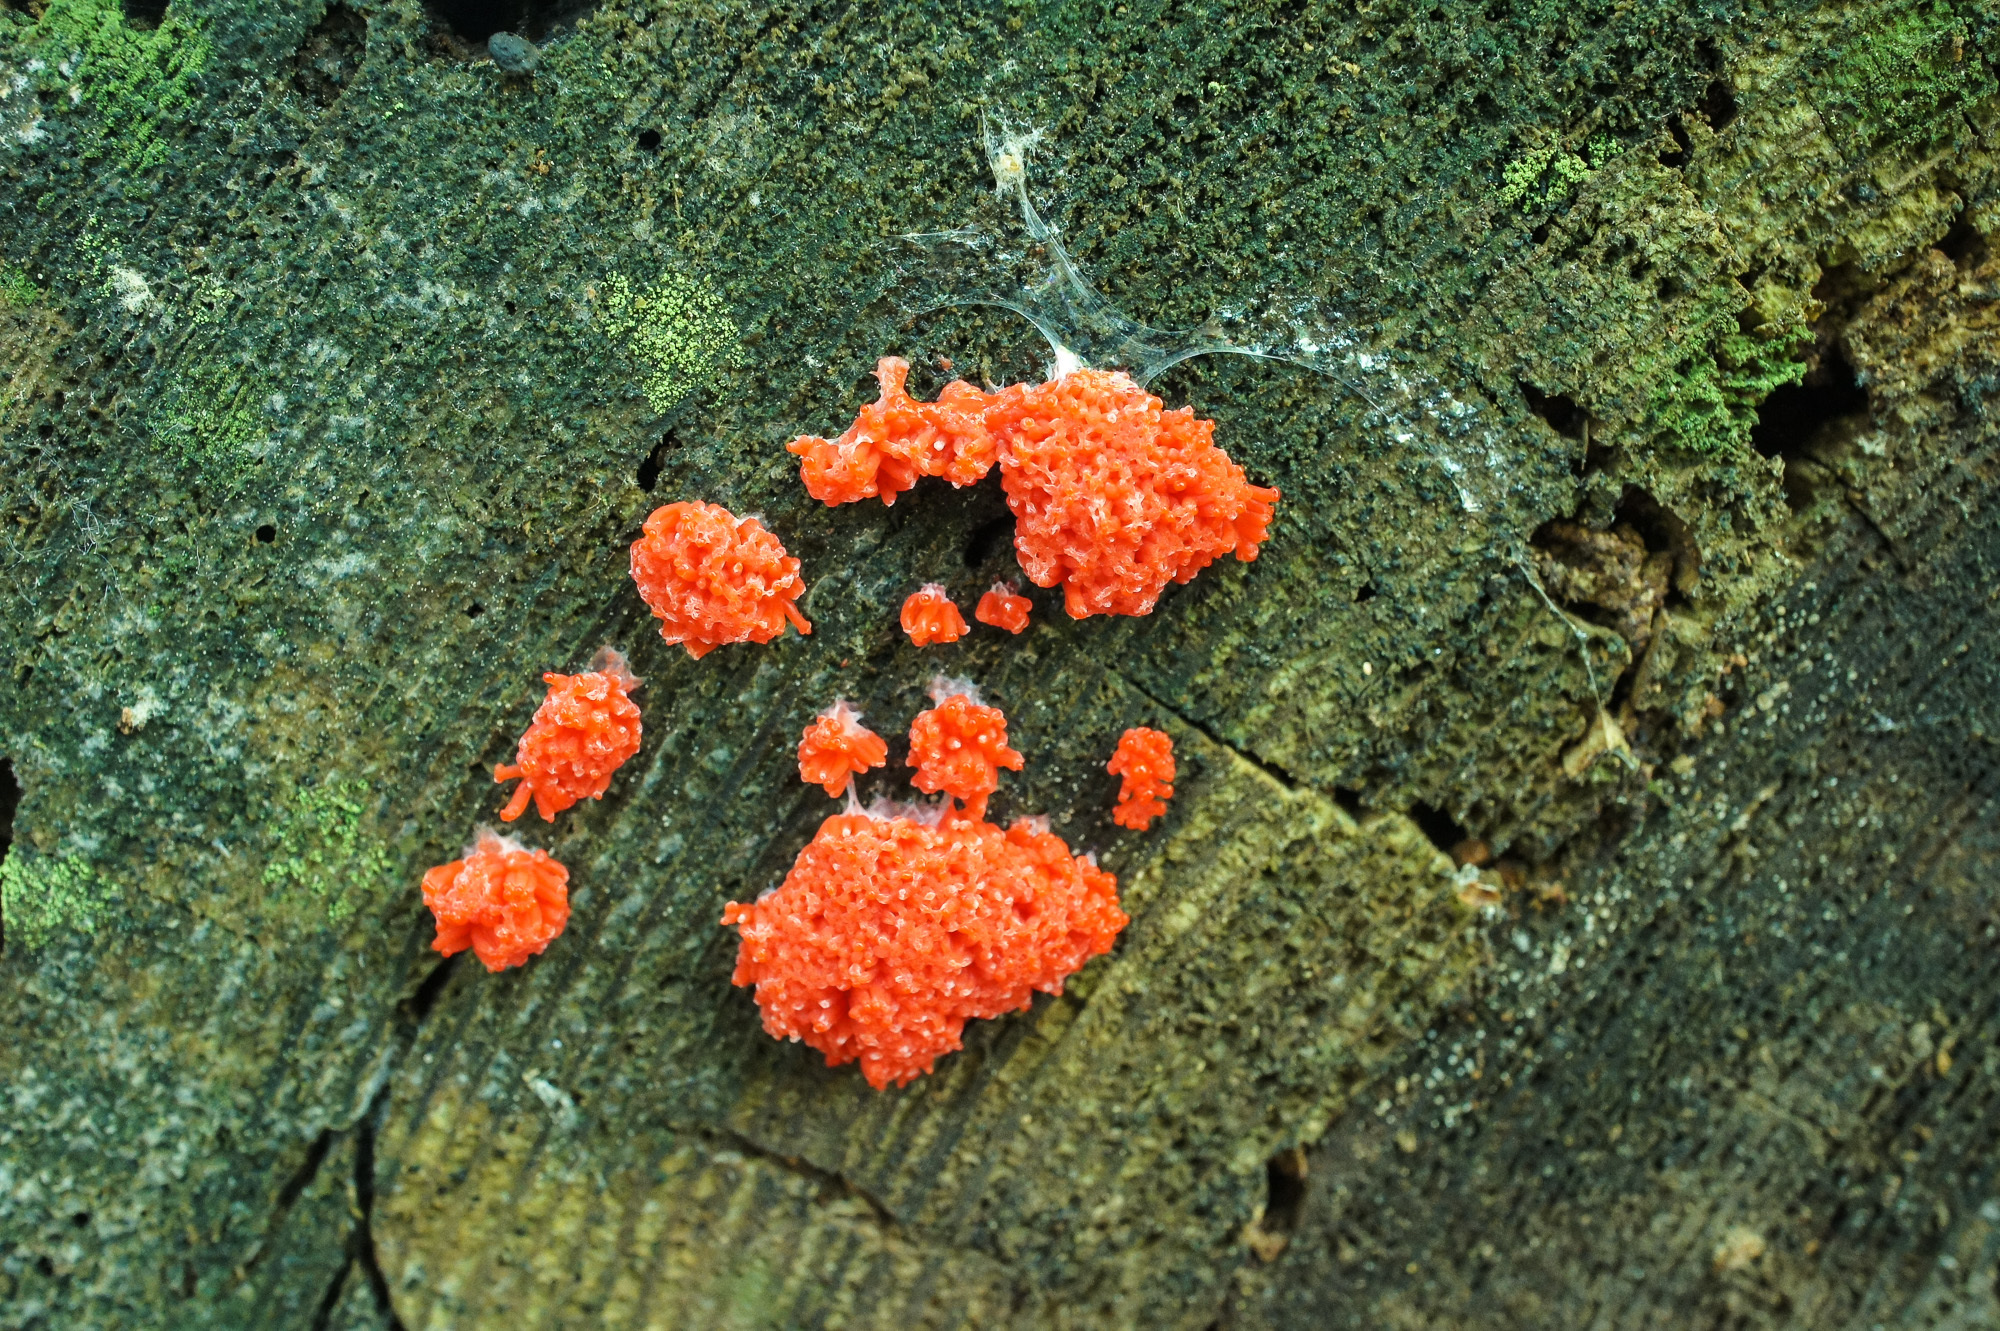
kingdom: Protozoa
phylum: Mycetozoa
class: Myxomycetes
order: Cribrariales
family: Tubiferaceae
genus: Tubifera
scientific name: Tubifera ferruginosa
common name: Red raspberry slime mold
